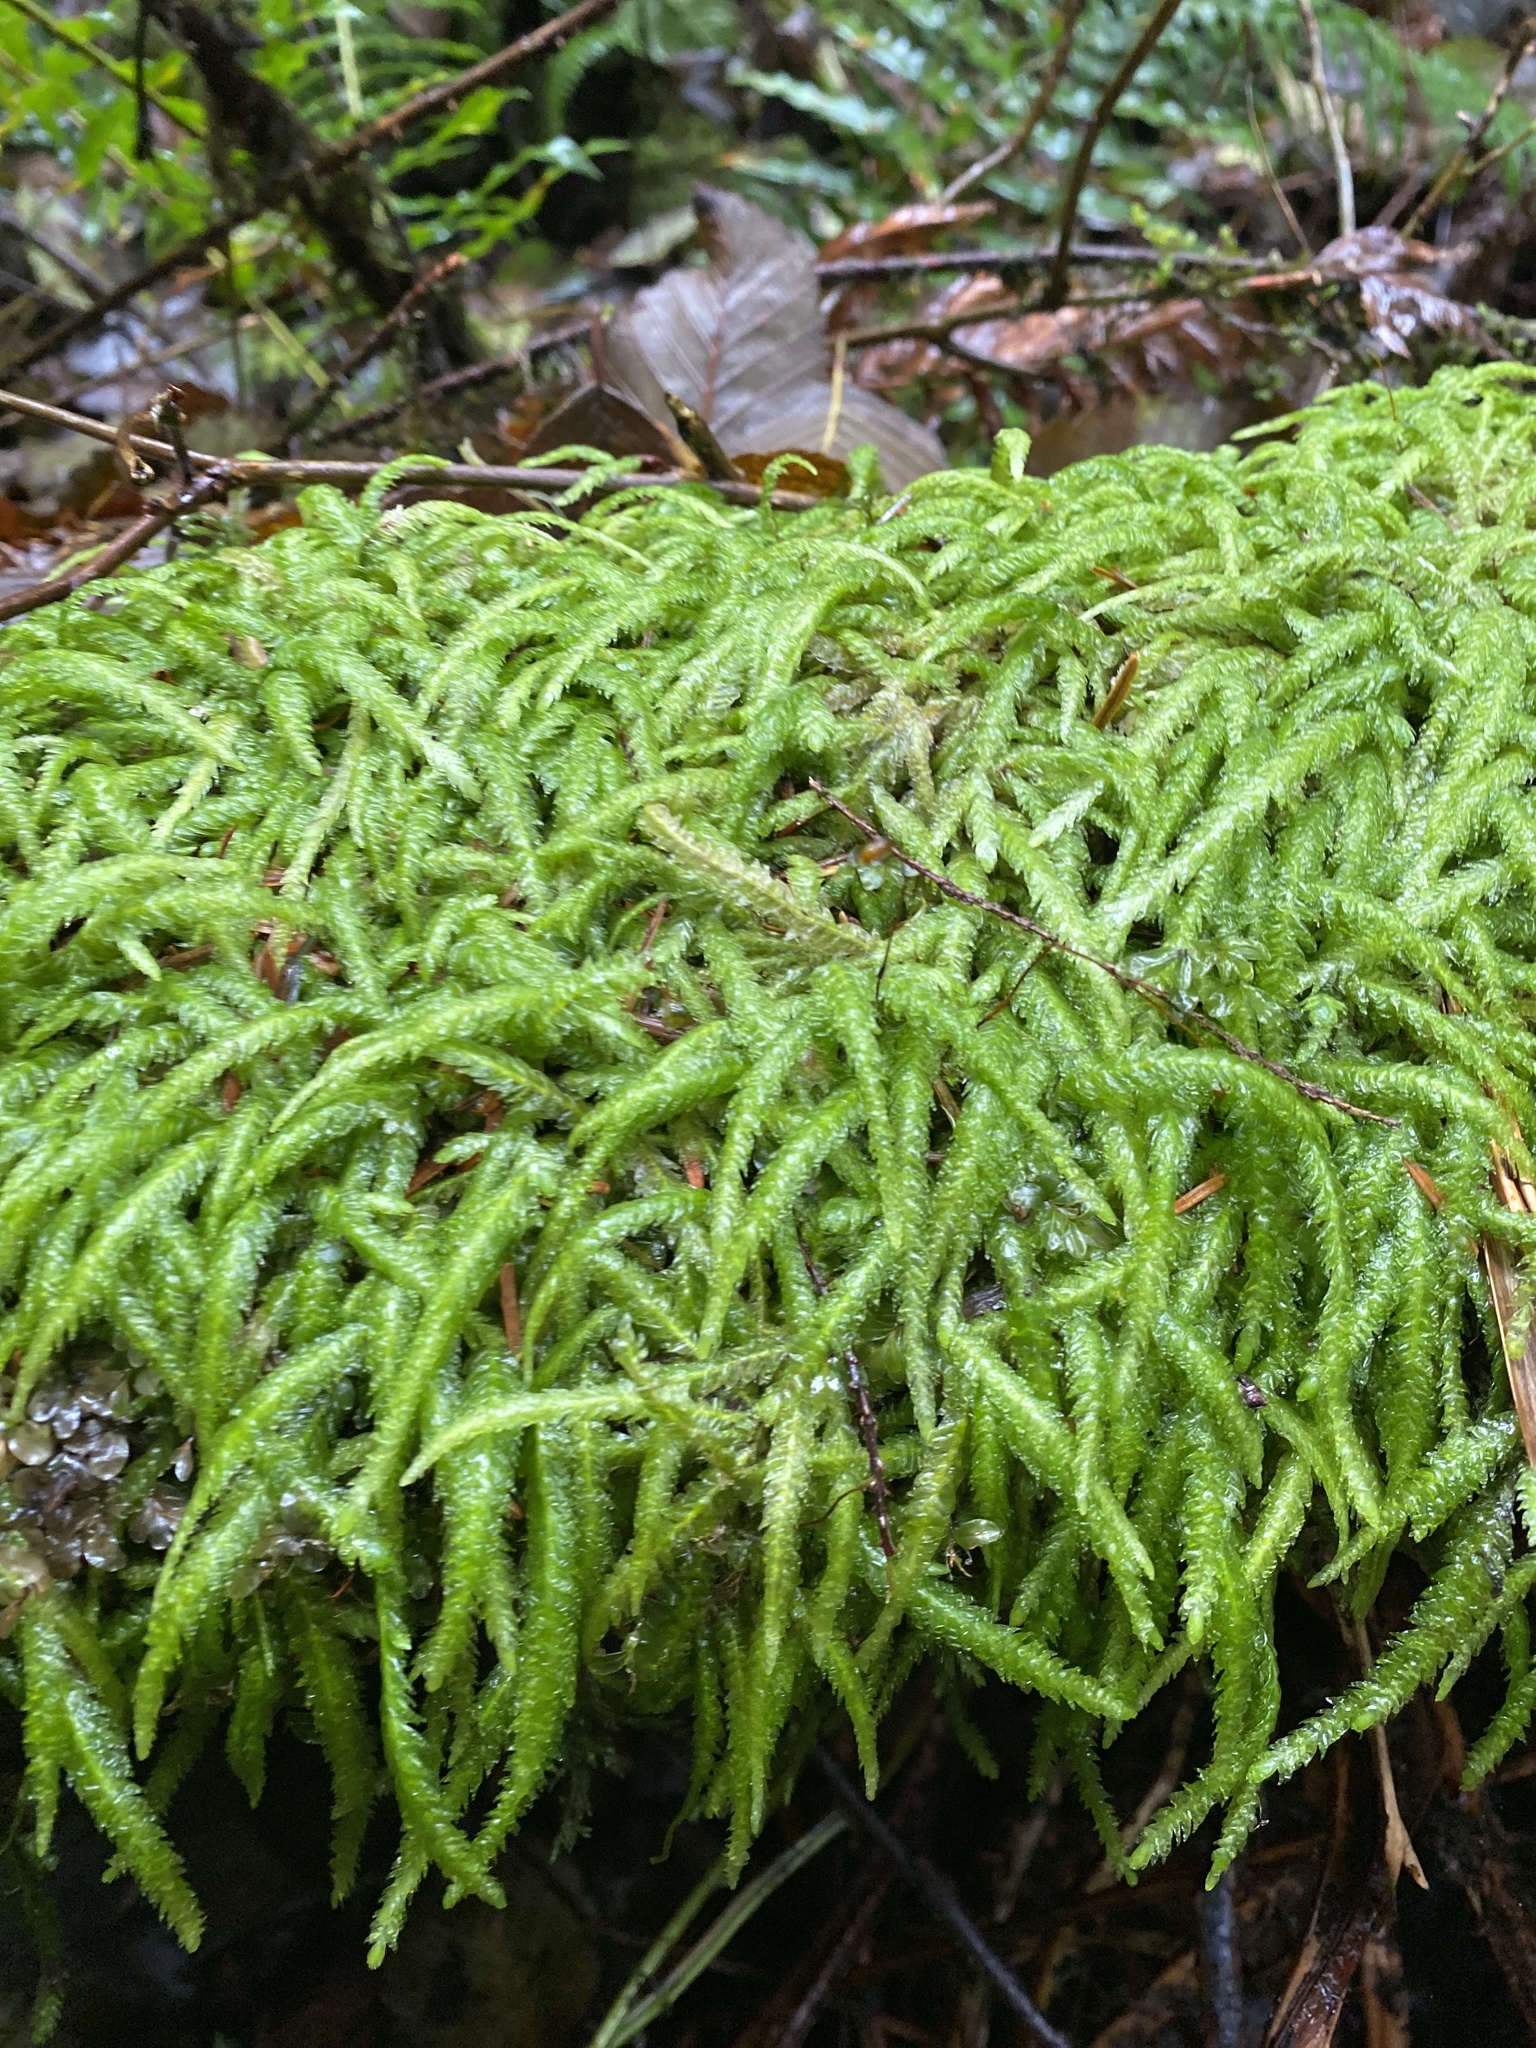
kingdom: Plantae
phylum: Bryophyta
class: Bryopsida
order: Hypnales
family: Plagiotheciaceae
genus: Plagiothecium
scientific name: Plagiothecium undulatum
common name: Waved silk-moss
